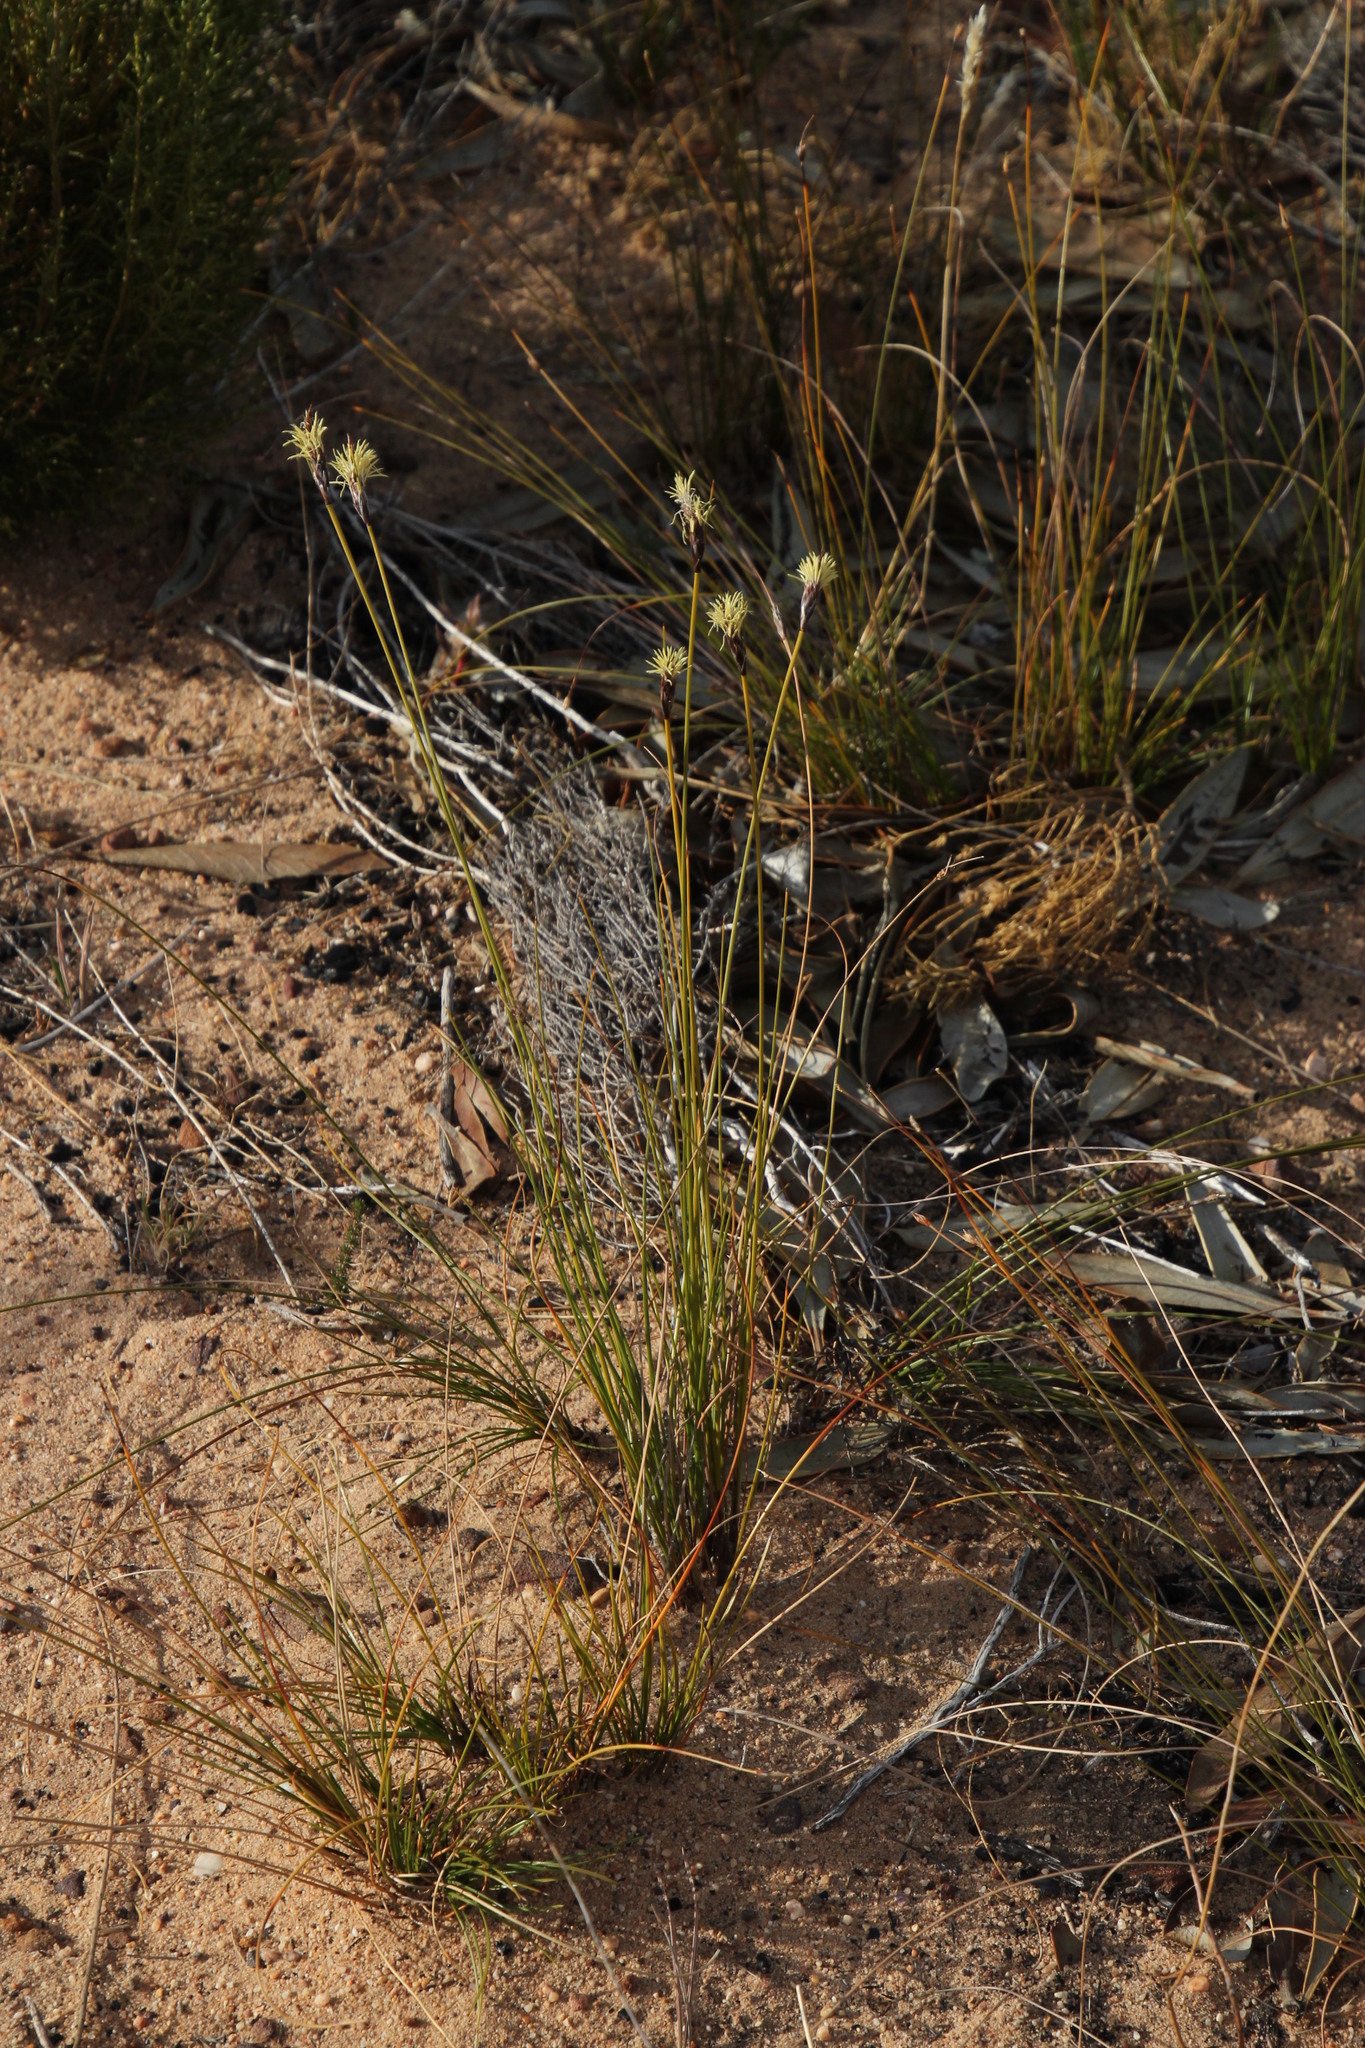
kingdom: Plantae
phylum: Tracheophyta
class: Liliopsida
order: Poales
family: Cyperaceae
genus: Ficinia
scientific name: Ficinia deusta
